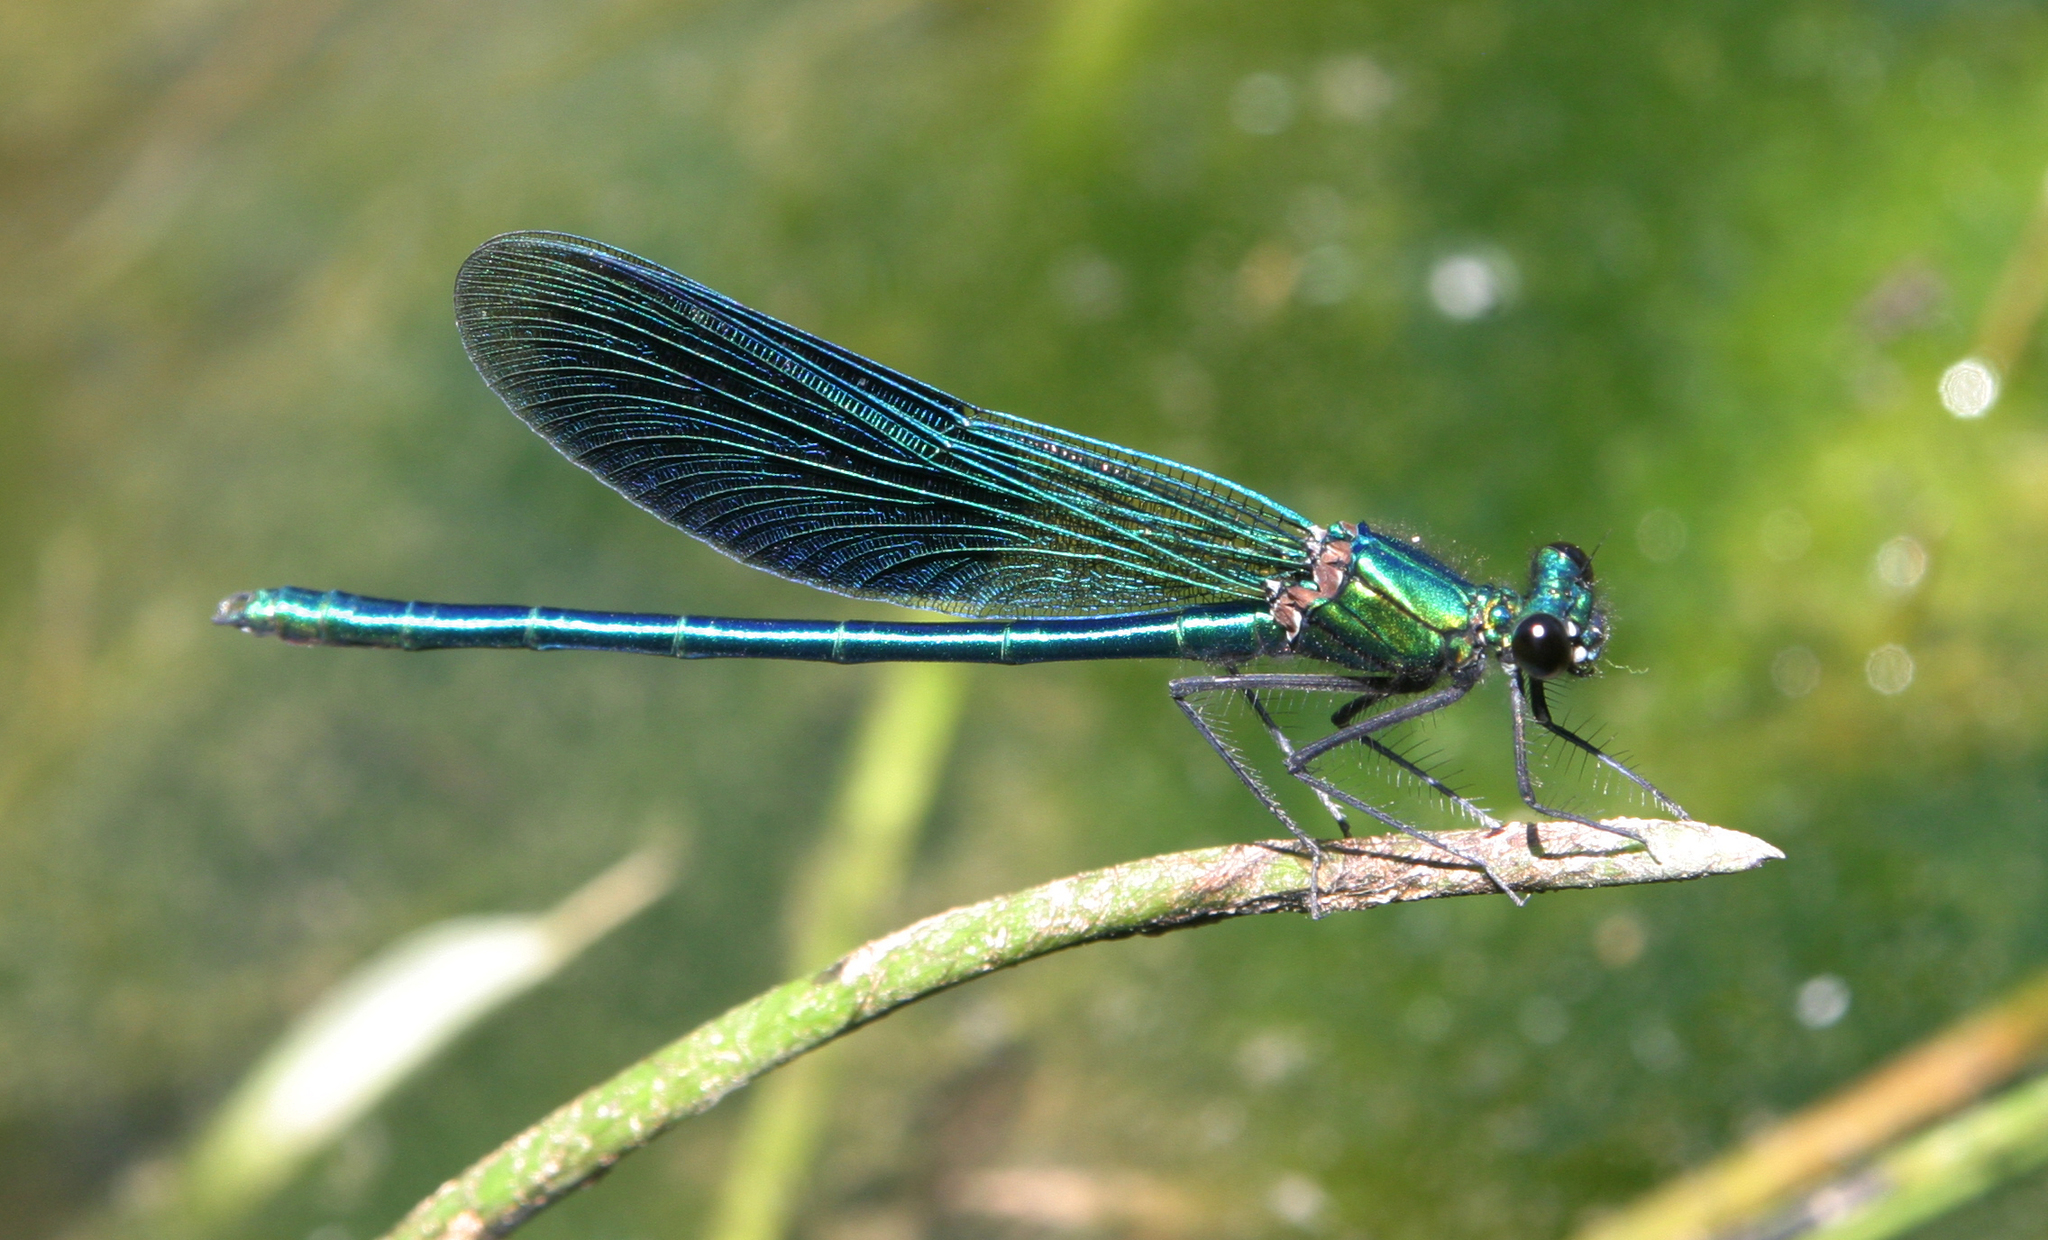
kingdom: Animalia
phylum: Arthropoda
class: Insecta
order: Odonata
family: Calopterygidae
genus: Calopteryx
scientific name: Calopteryx splendens
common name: Banded demoiselle
